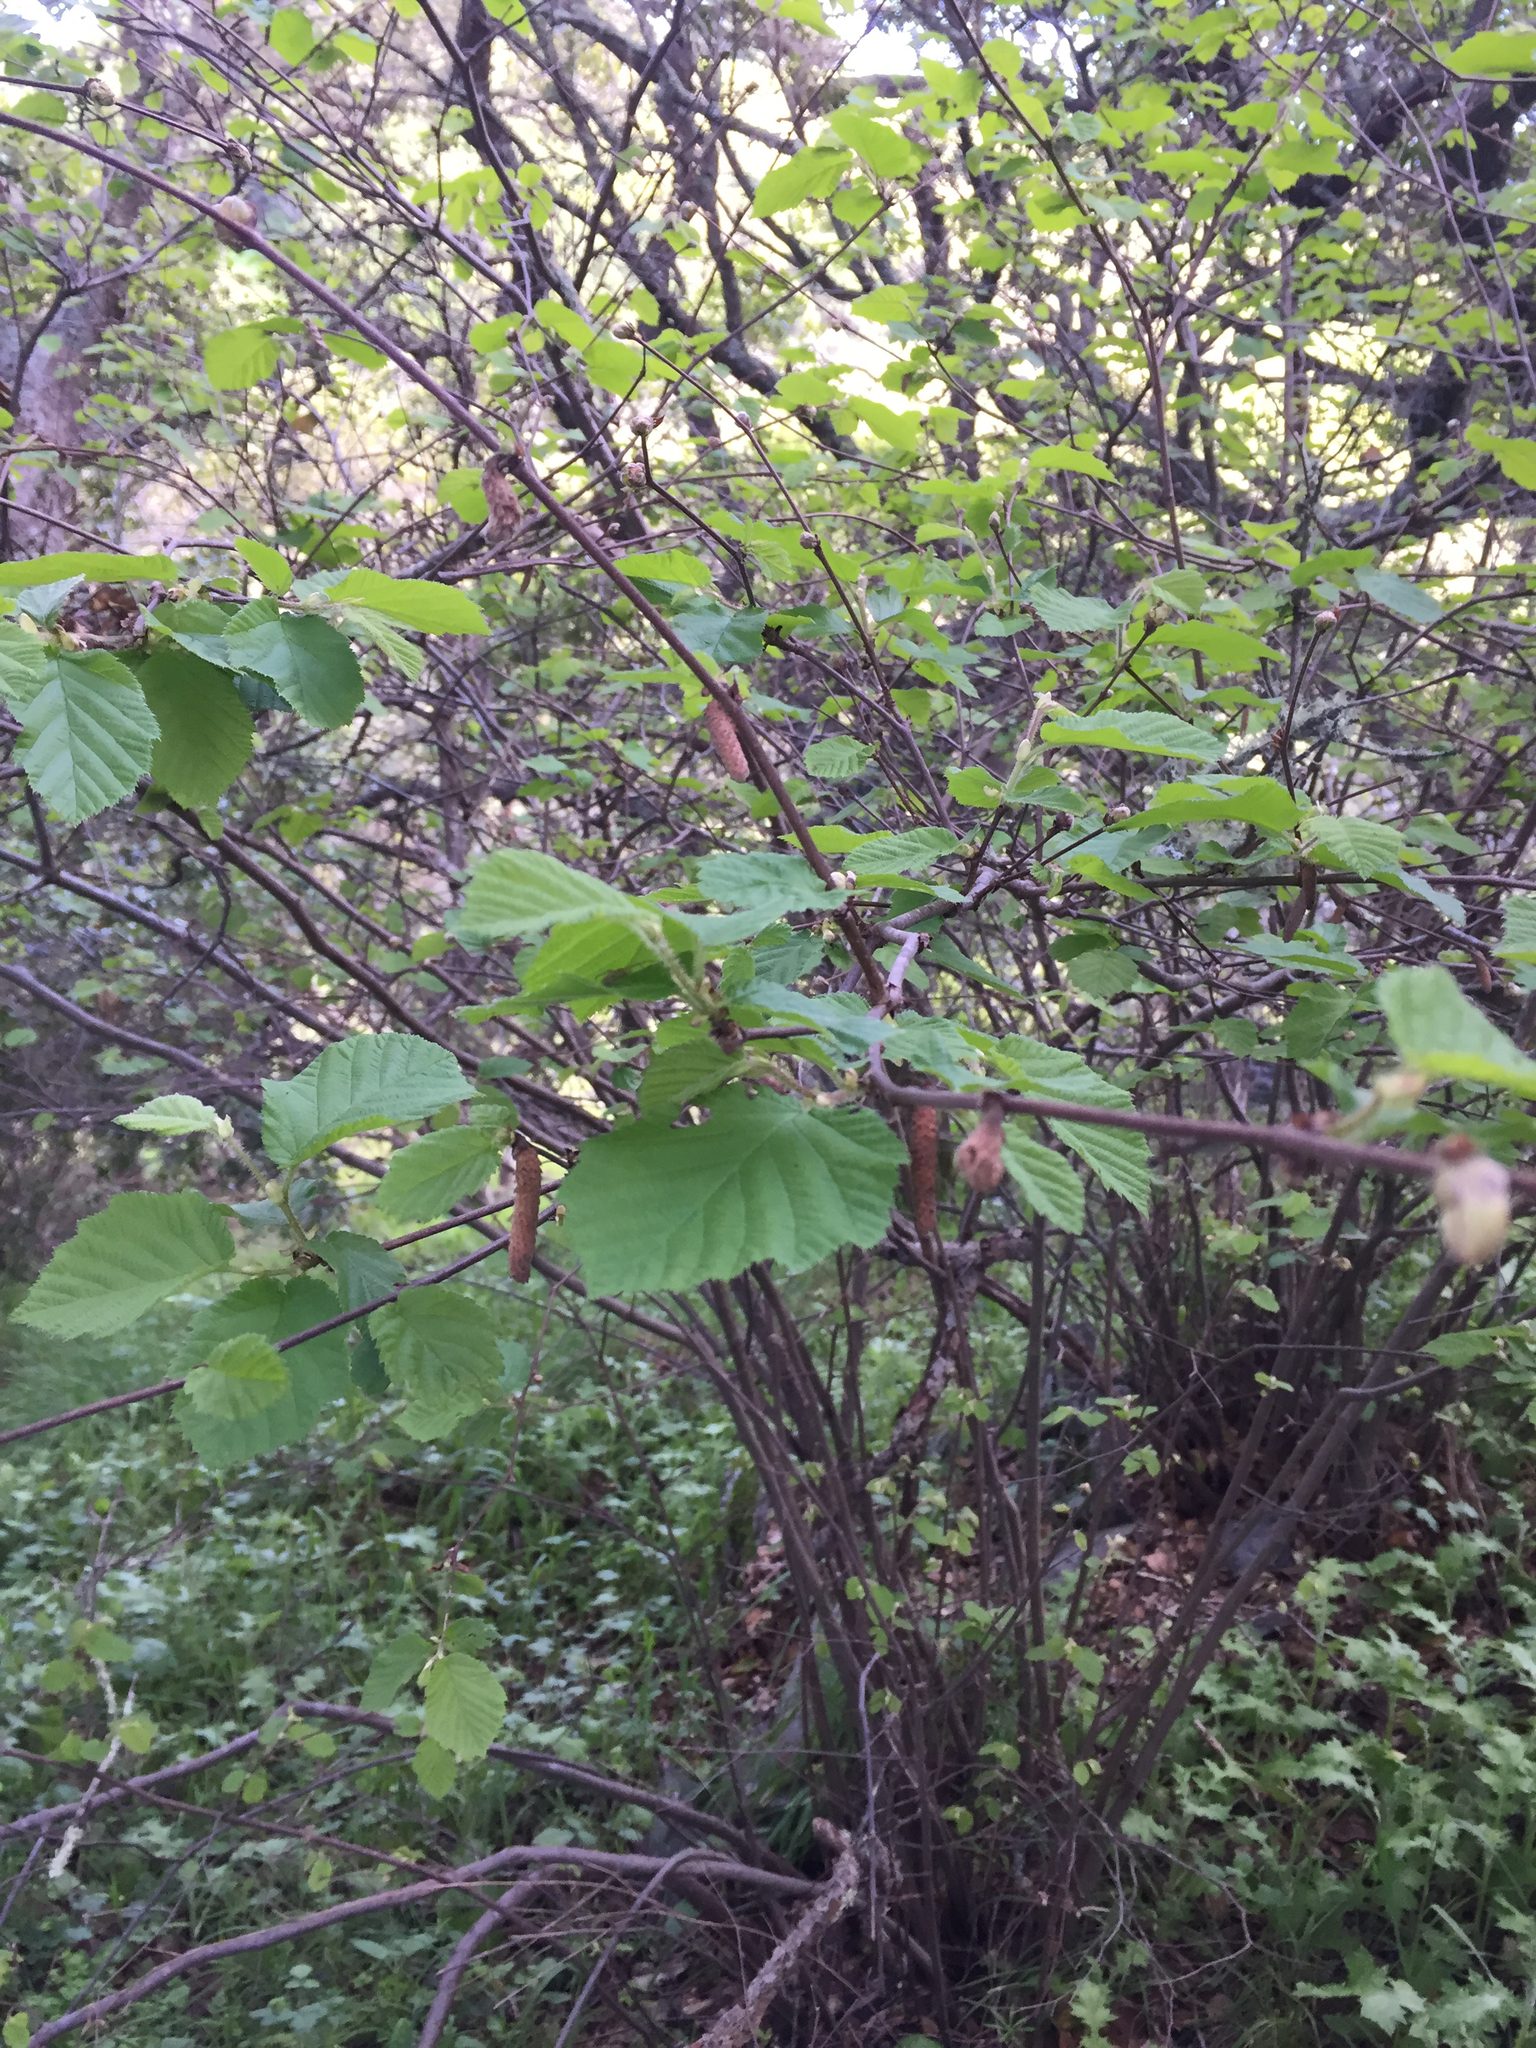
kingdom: Plantae
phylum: Tracheophyta
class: Magnoliopsida
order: Fagales
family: Betulaceae
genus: Corylus
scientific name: Corylus cornuta
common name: Beaked hazel
